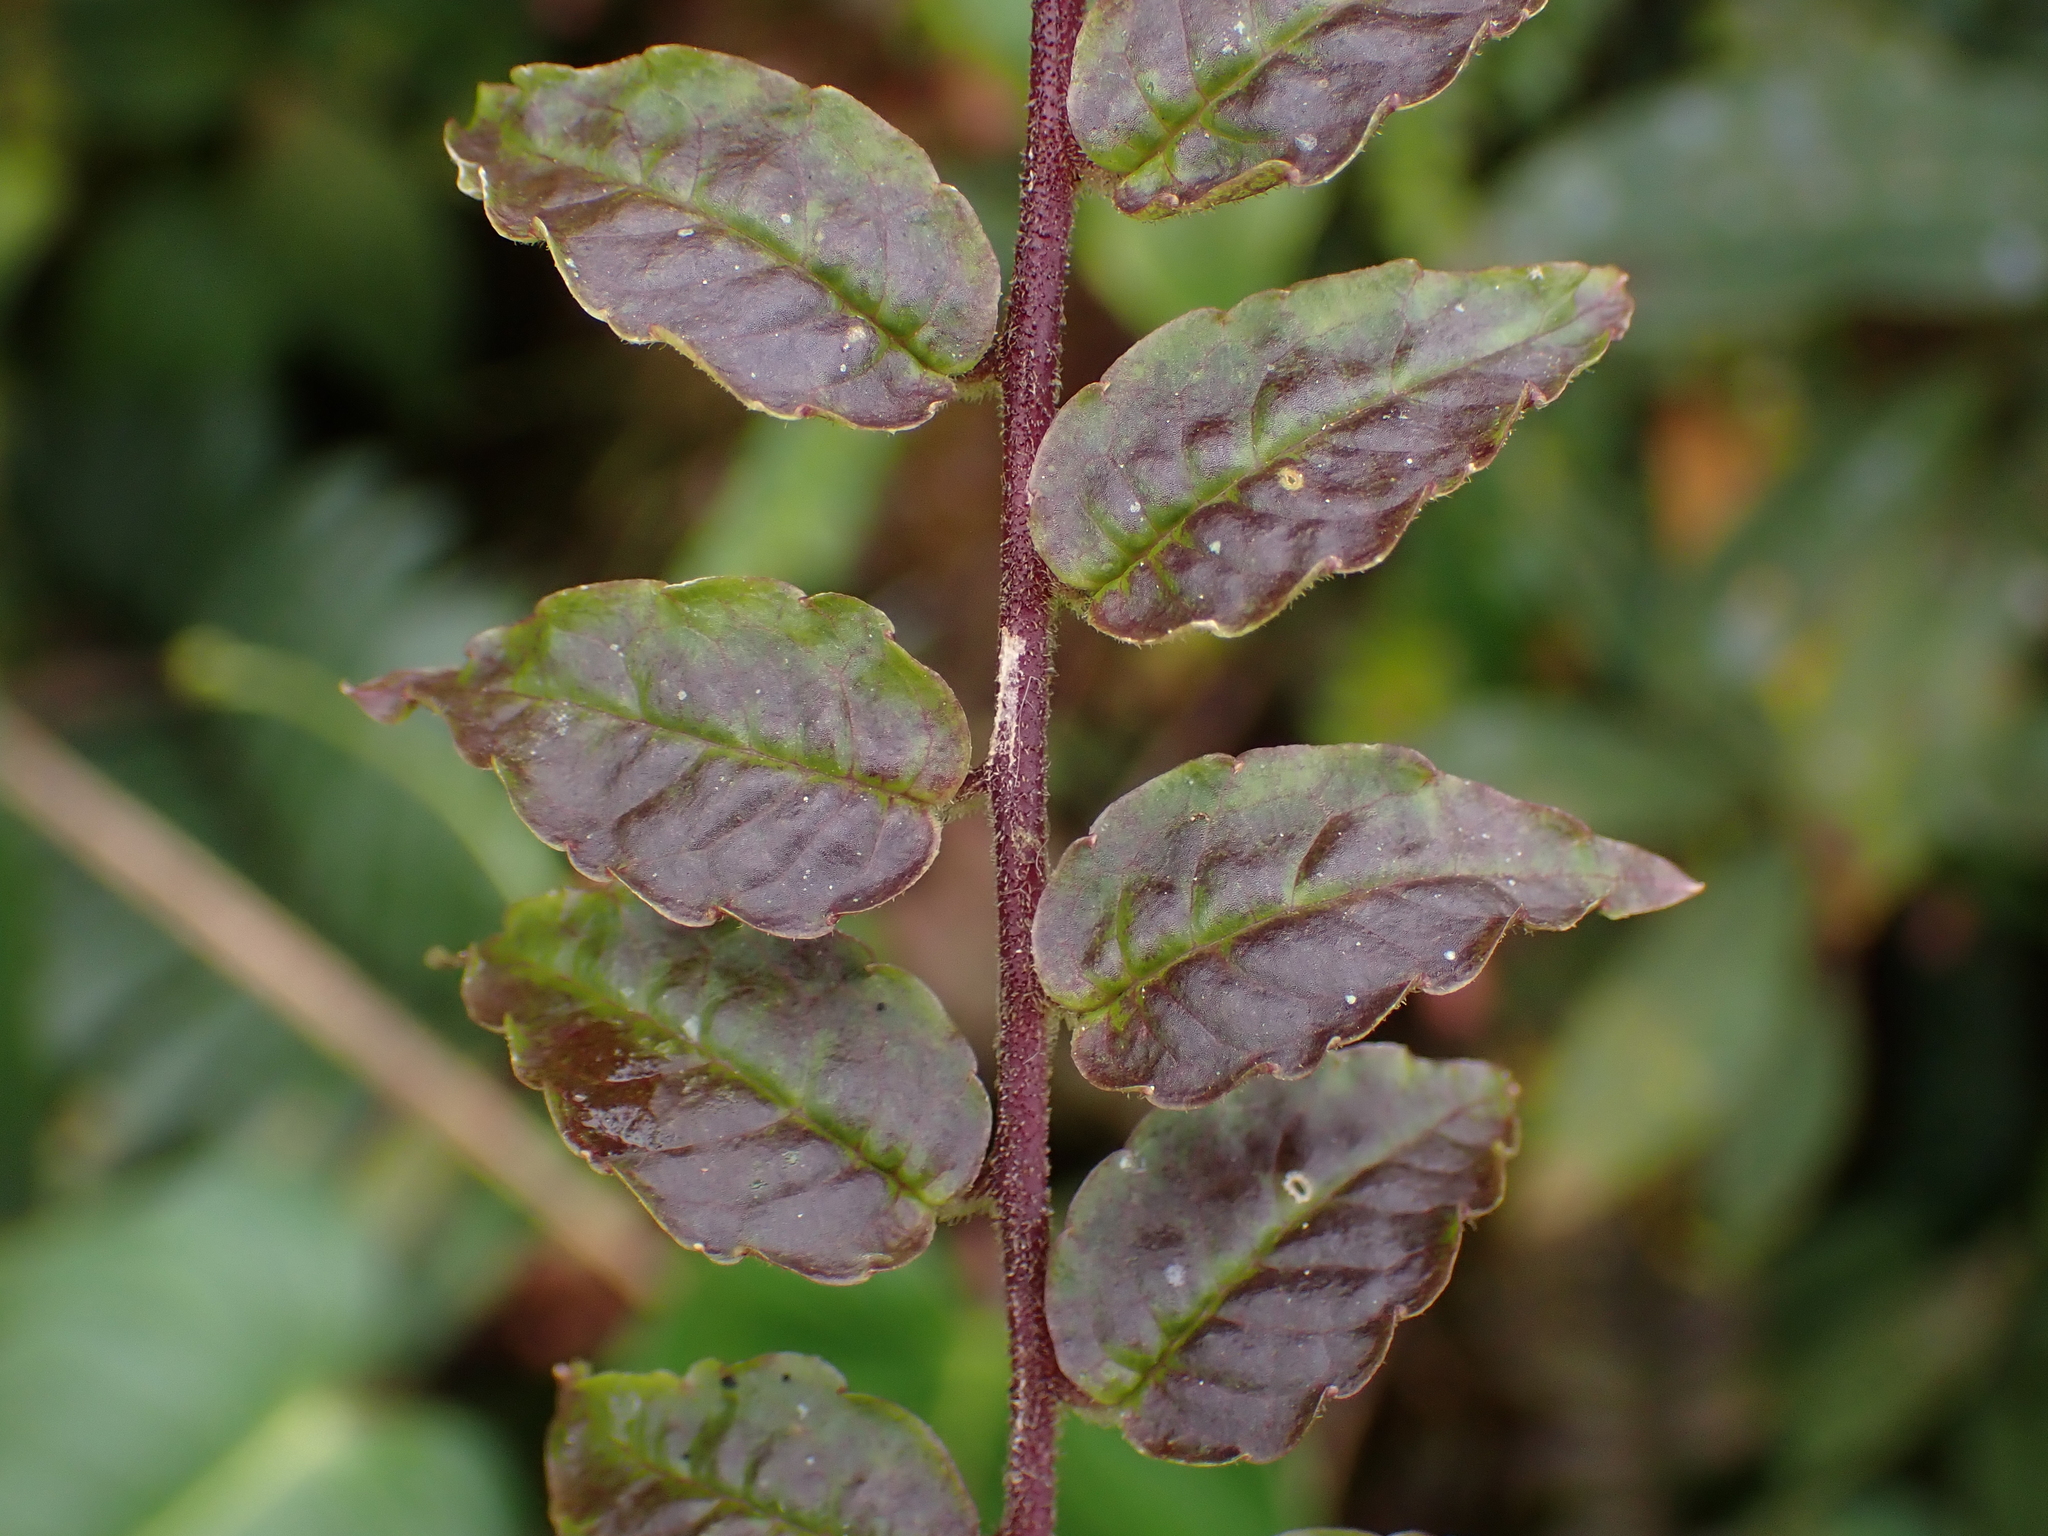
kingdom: Plantae
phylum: Tracheophyta
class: Magnoliopsida
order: Asterales
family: Campanulaceae
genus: Burmeistera
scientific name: Burmeistera knaphusii
